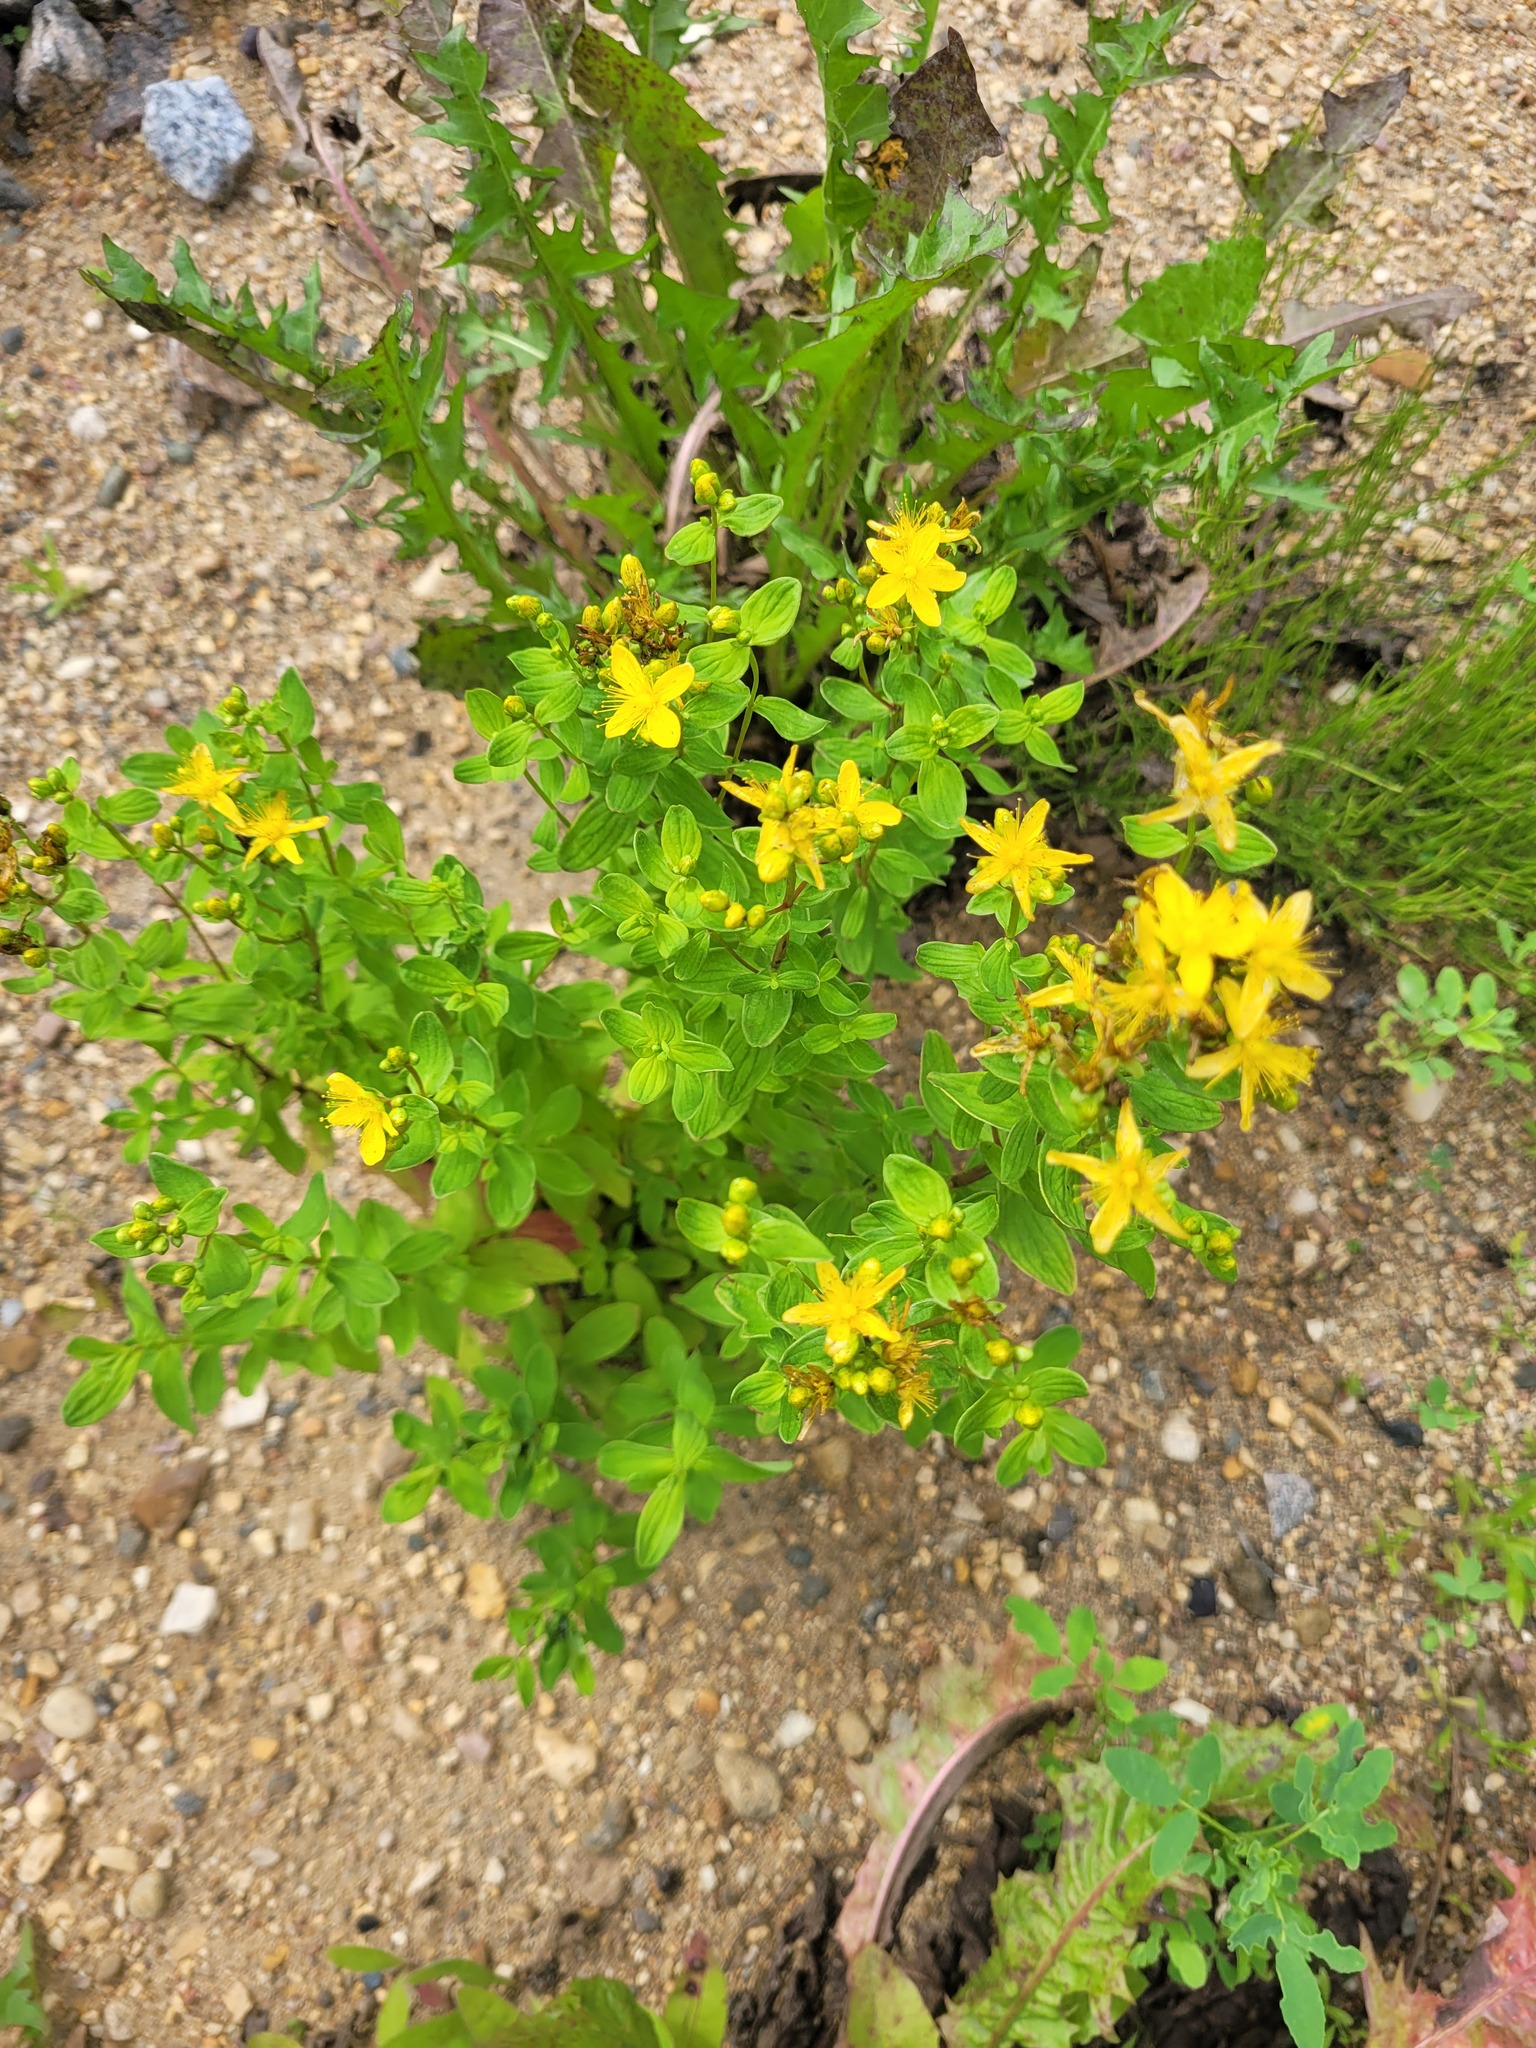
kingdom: Plantae
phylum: Tracheophyta
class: Magnoliopsida
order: Malpighiales
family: Hypericaceae
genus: Hypericum
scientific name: Hypericum maculatum
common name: Imperforate st. john's-wort
